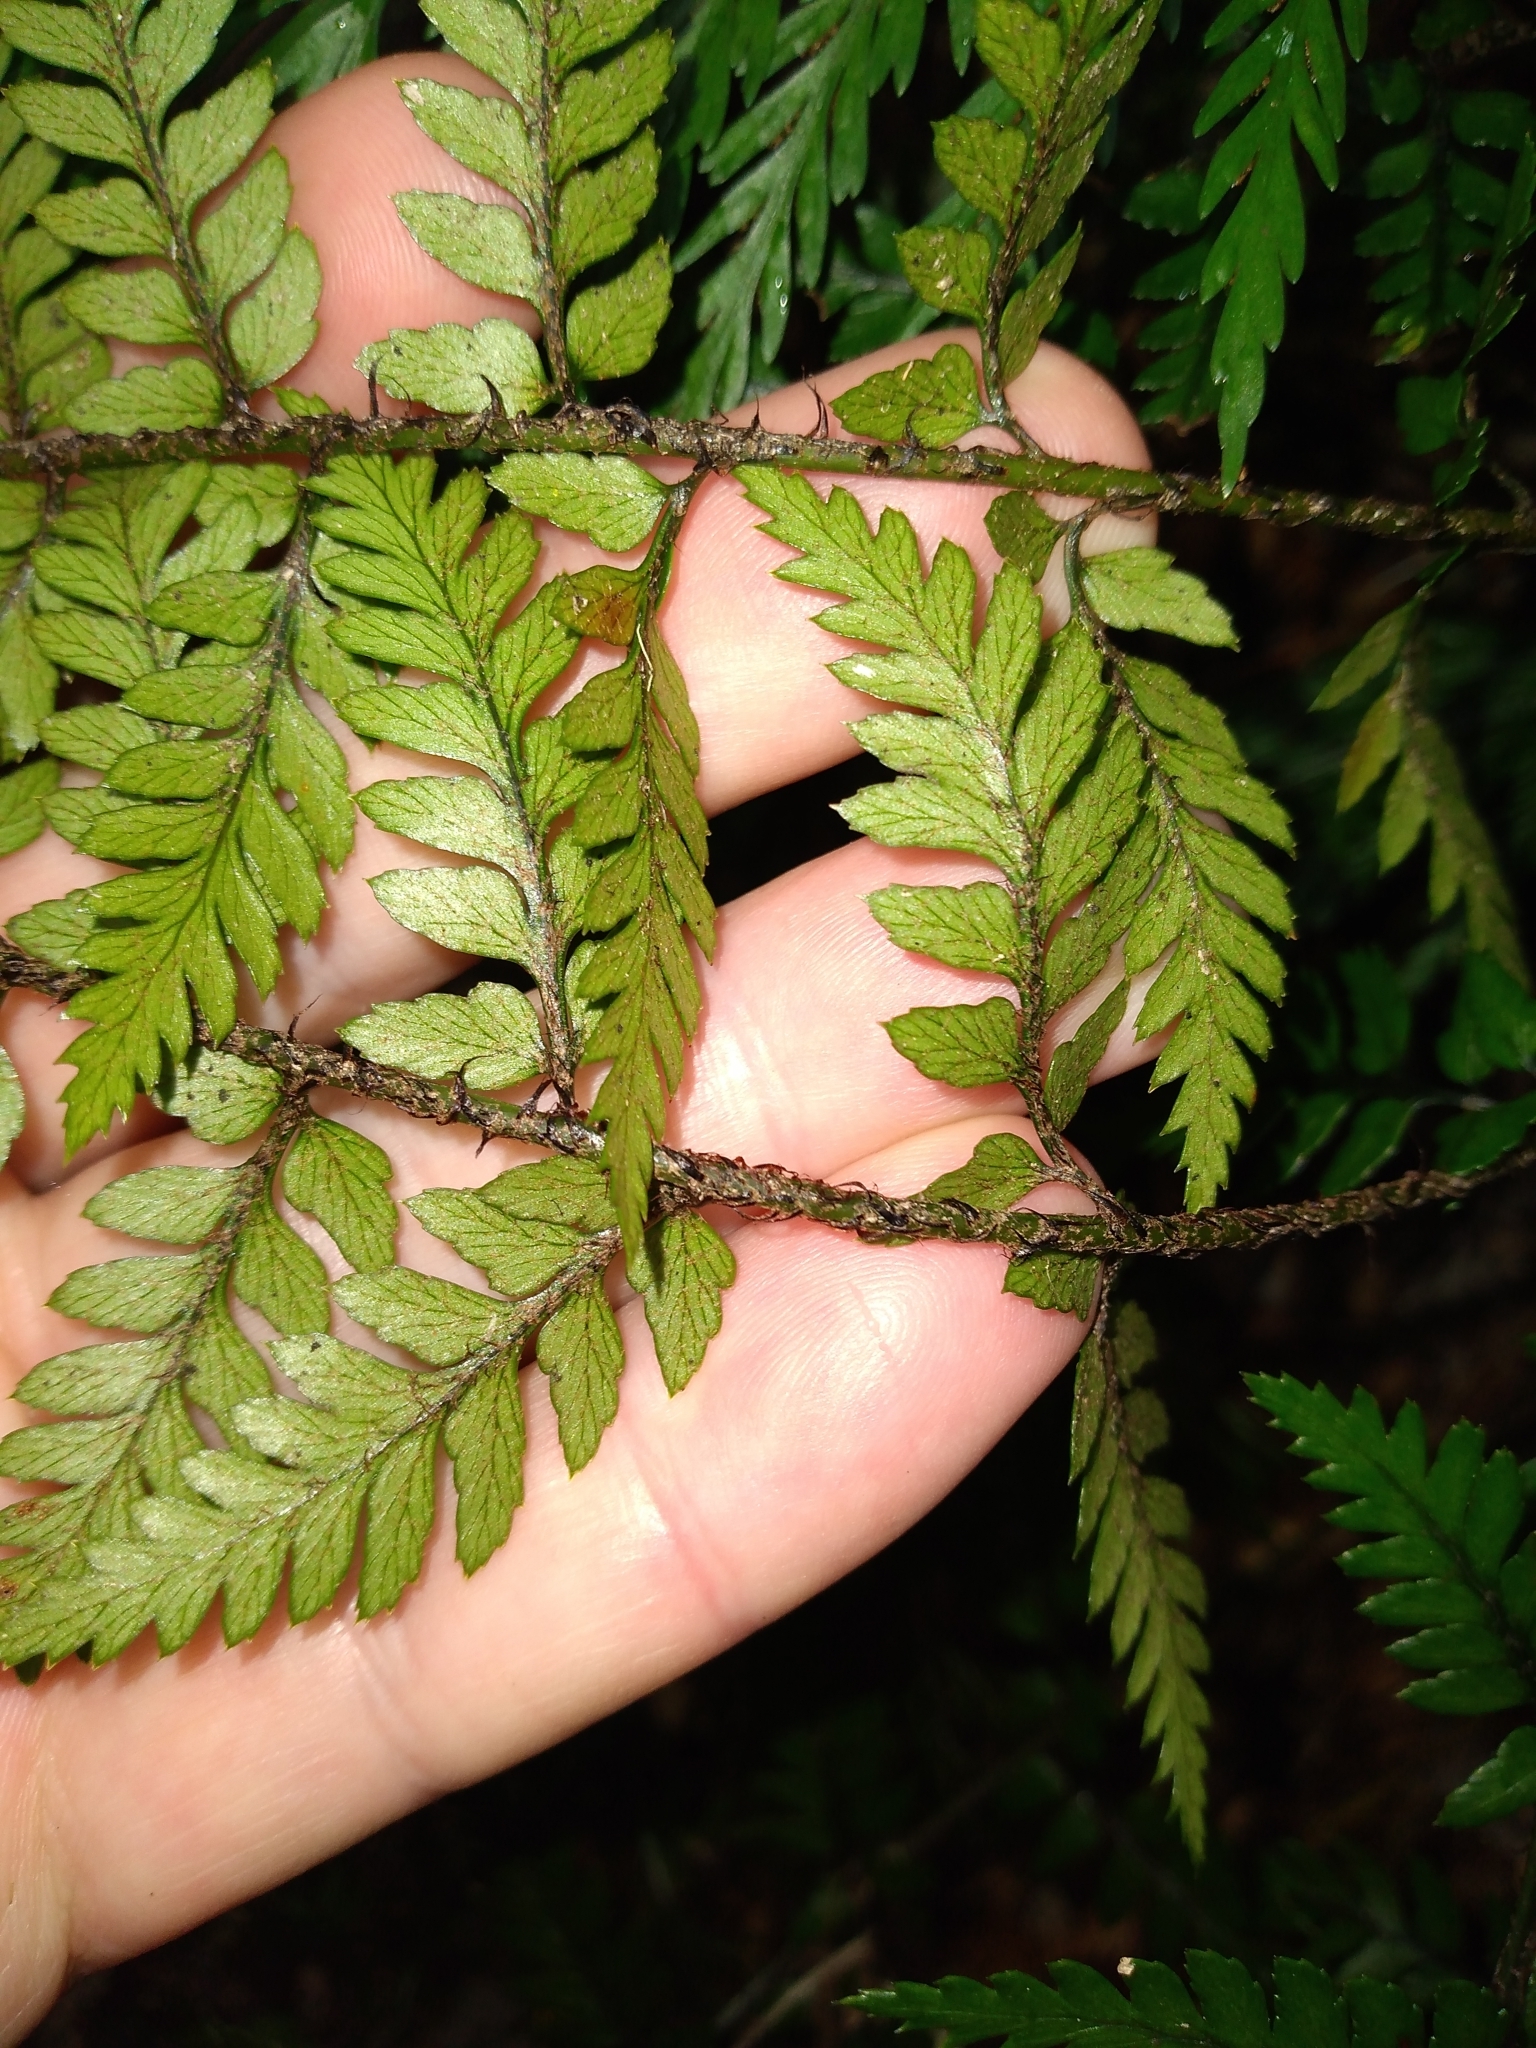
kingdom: Plantae
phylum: Tracheophyta
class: Polypodiopsida
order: Polypodiales
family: Dryopteridaceae
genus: Polystichum
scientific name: Polystichum neozelandicum
